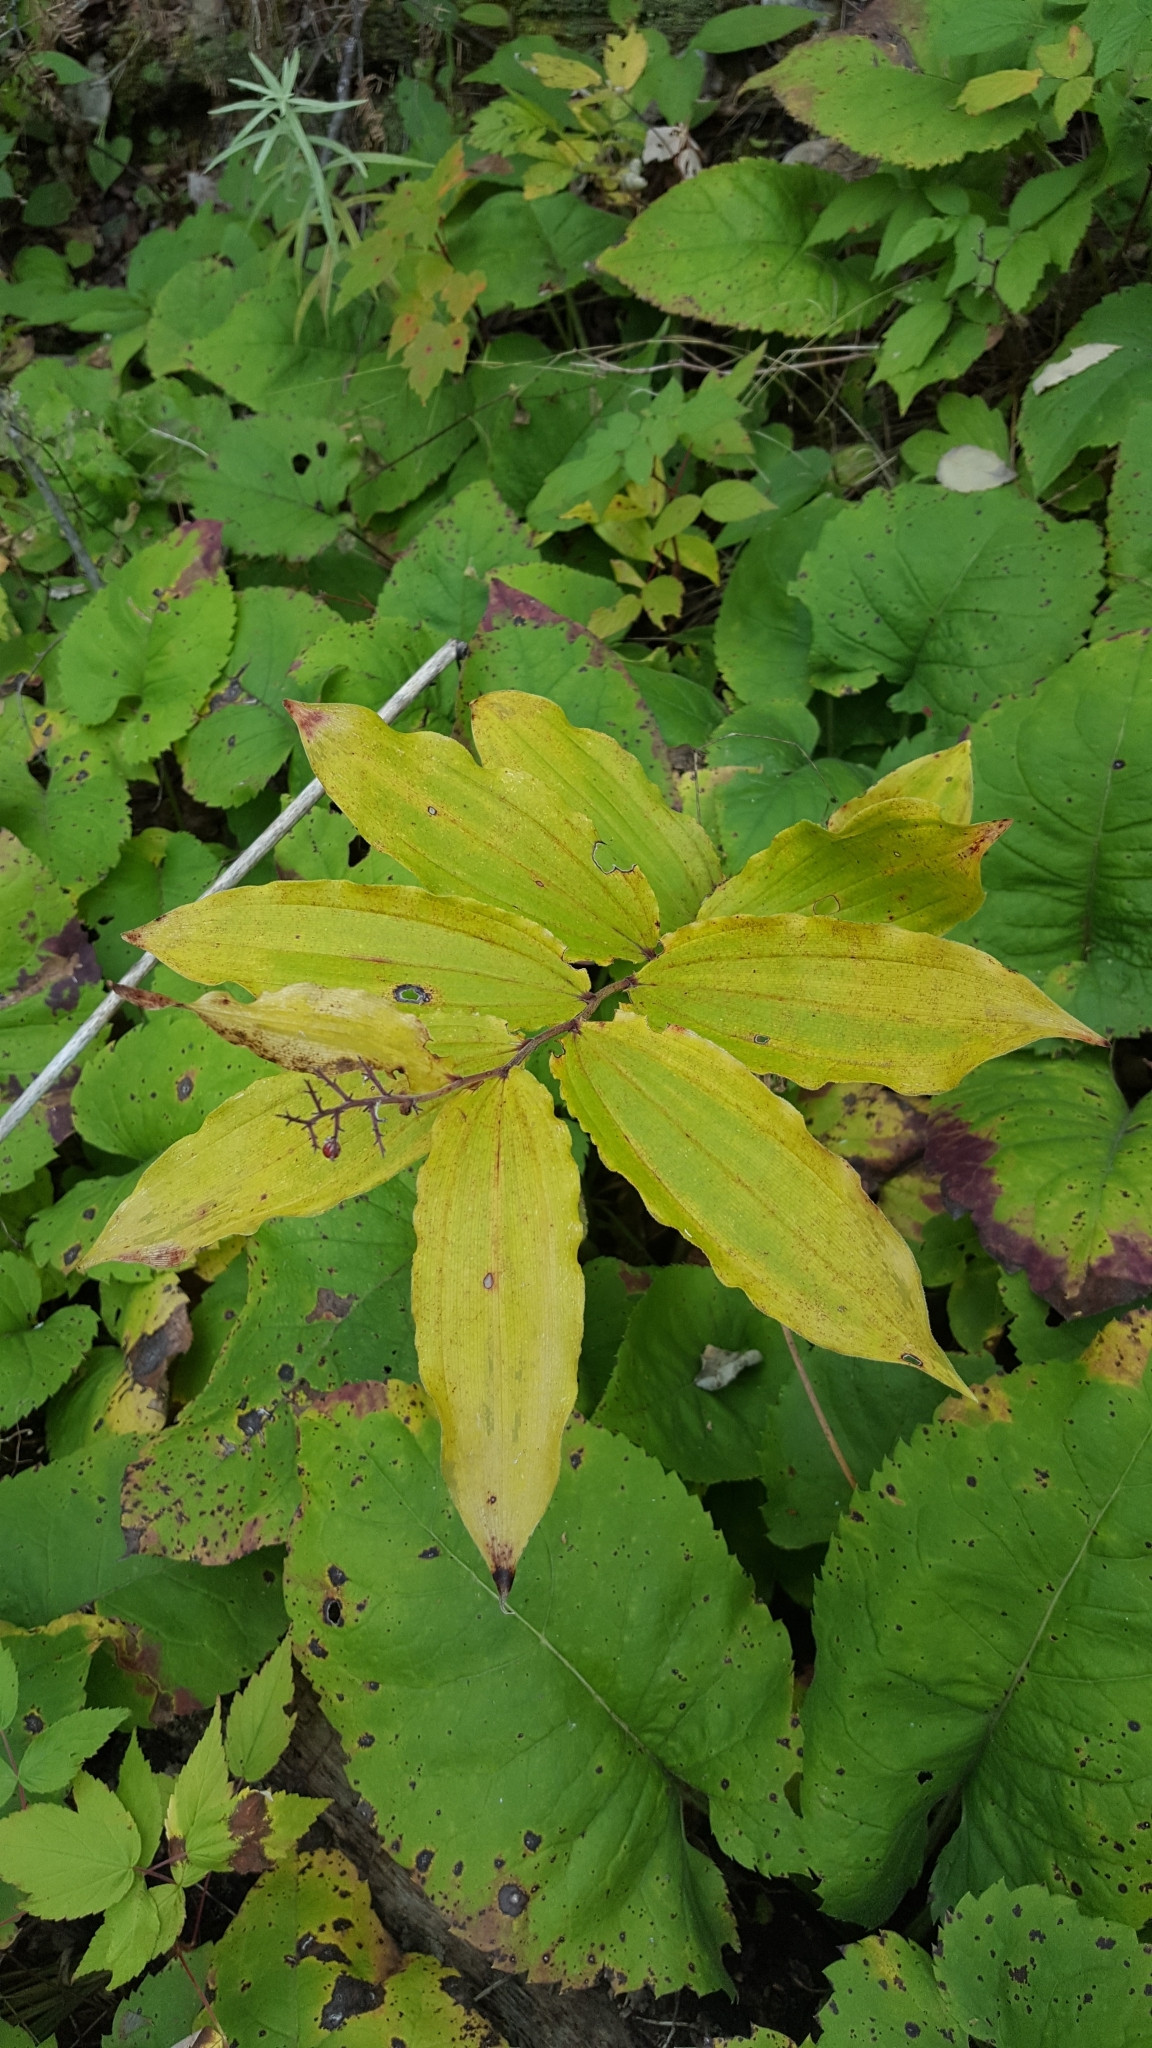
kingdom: Plantae
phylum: Tracheophyta
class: Liliopsida
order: Asparagales
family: Asparagaceae
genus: Maianthemum
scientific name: Maianthemum racemosum
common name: False spikenard
